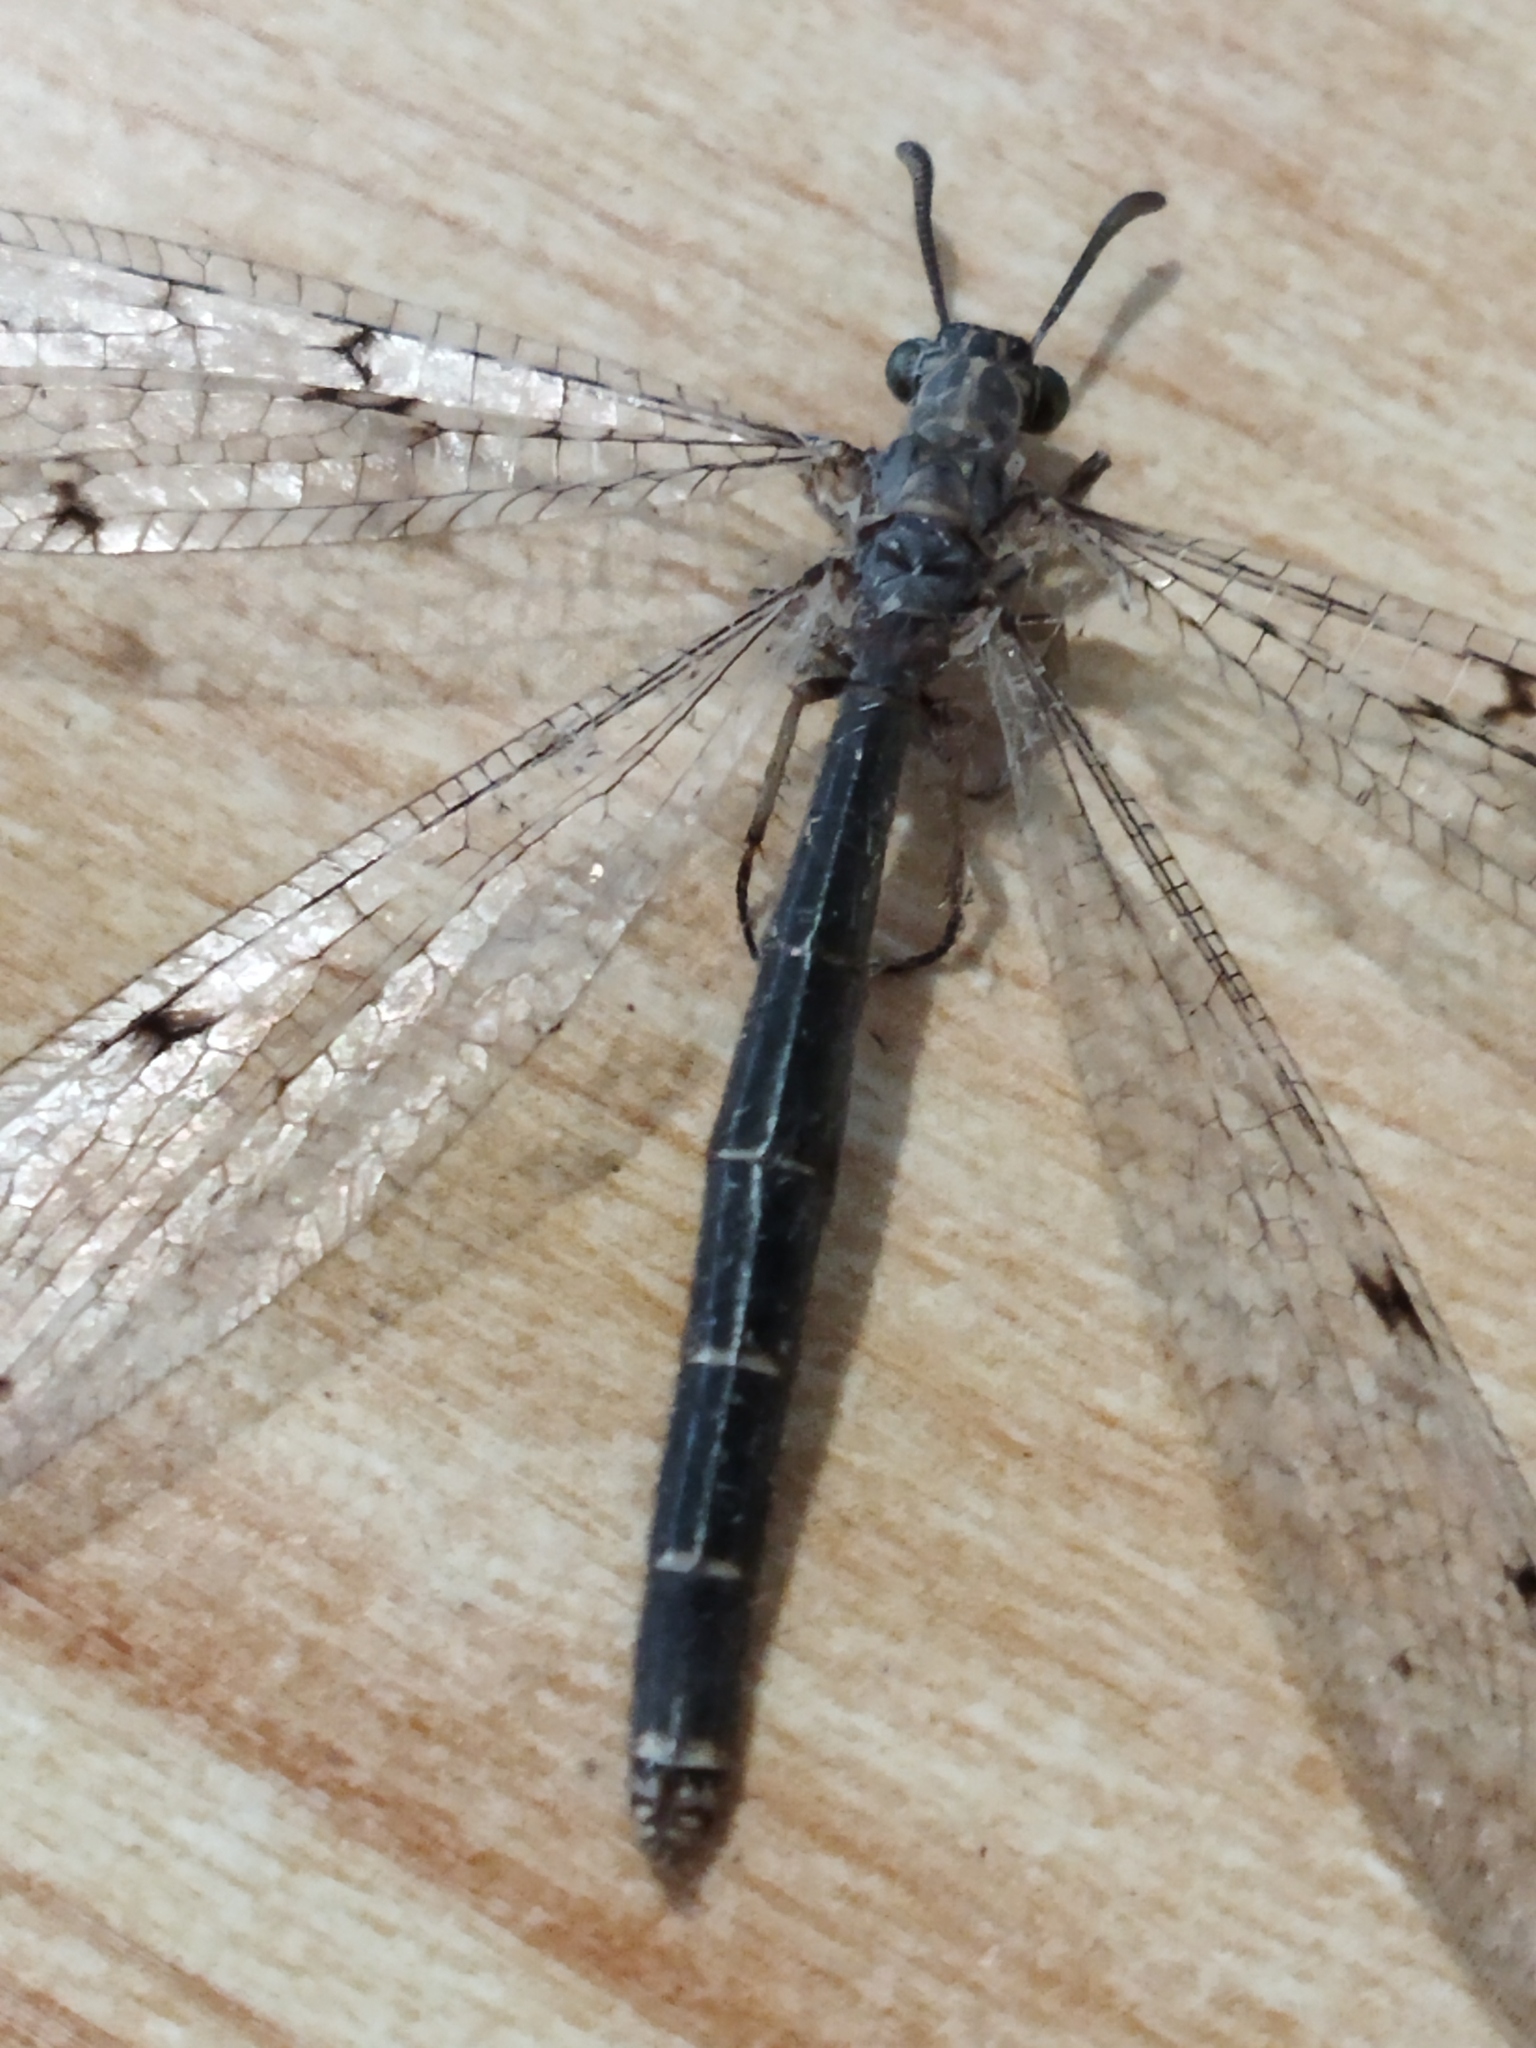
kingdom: Animalia
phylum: Arthropoda
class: Insecta
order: Neuroptera
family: Myrmeleontidae
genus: Euroleon
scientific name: Euroleon nostras
